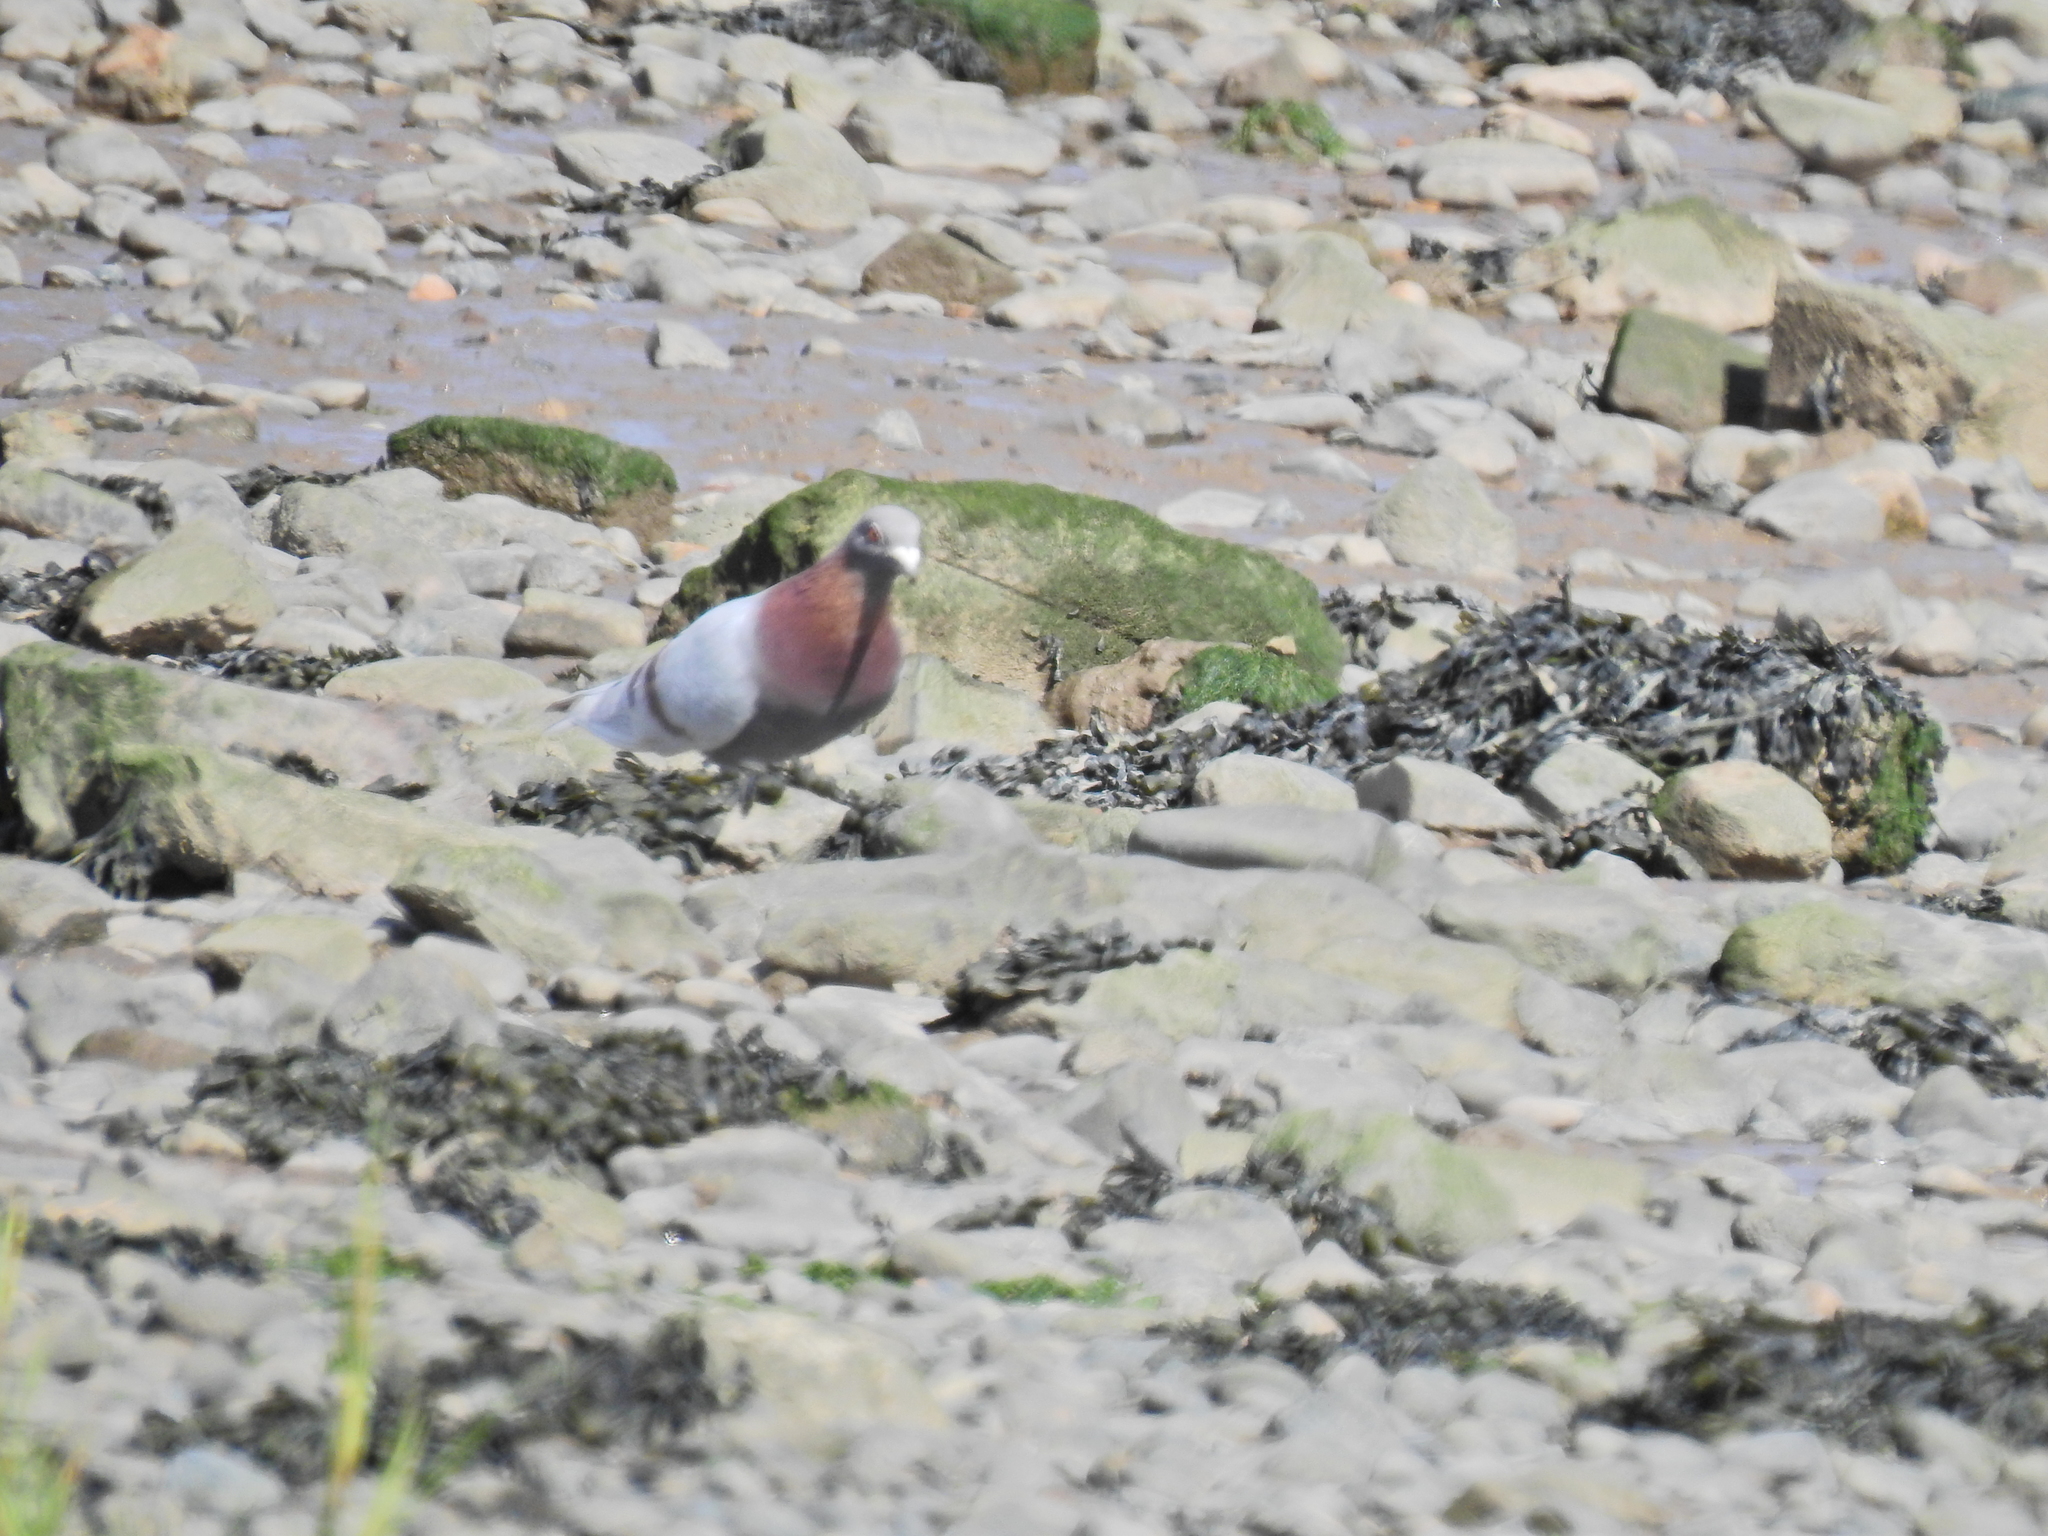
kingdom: Animalia
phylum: Chordata
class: Aves
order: Columbiformes
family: Columbidae
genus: Columba
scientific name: Columba livia
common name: Rock pigeon
